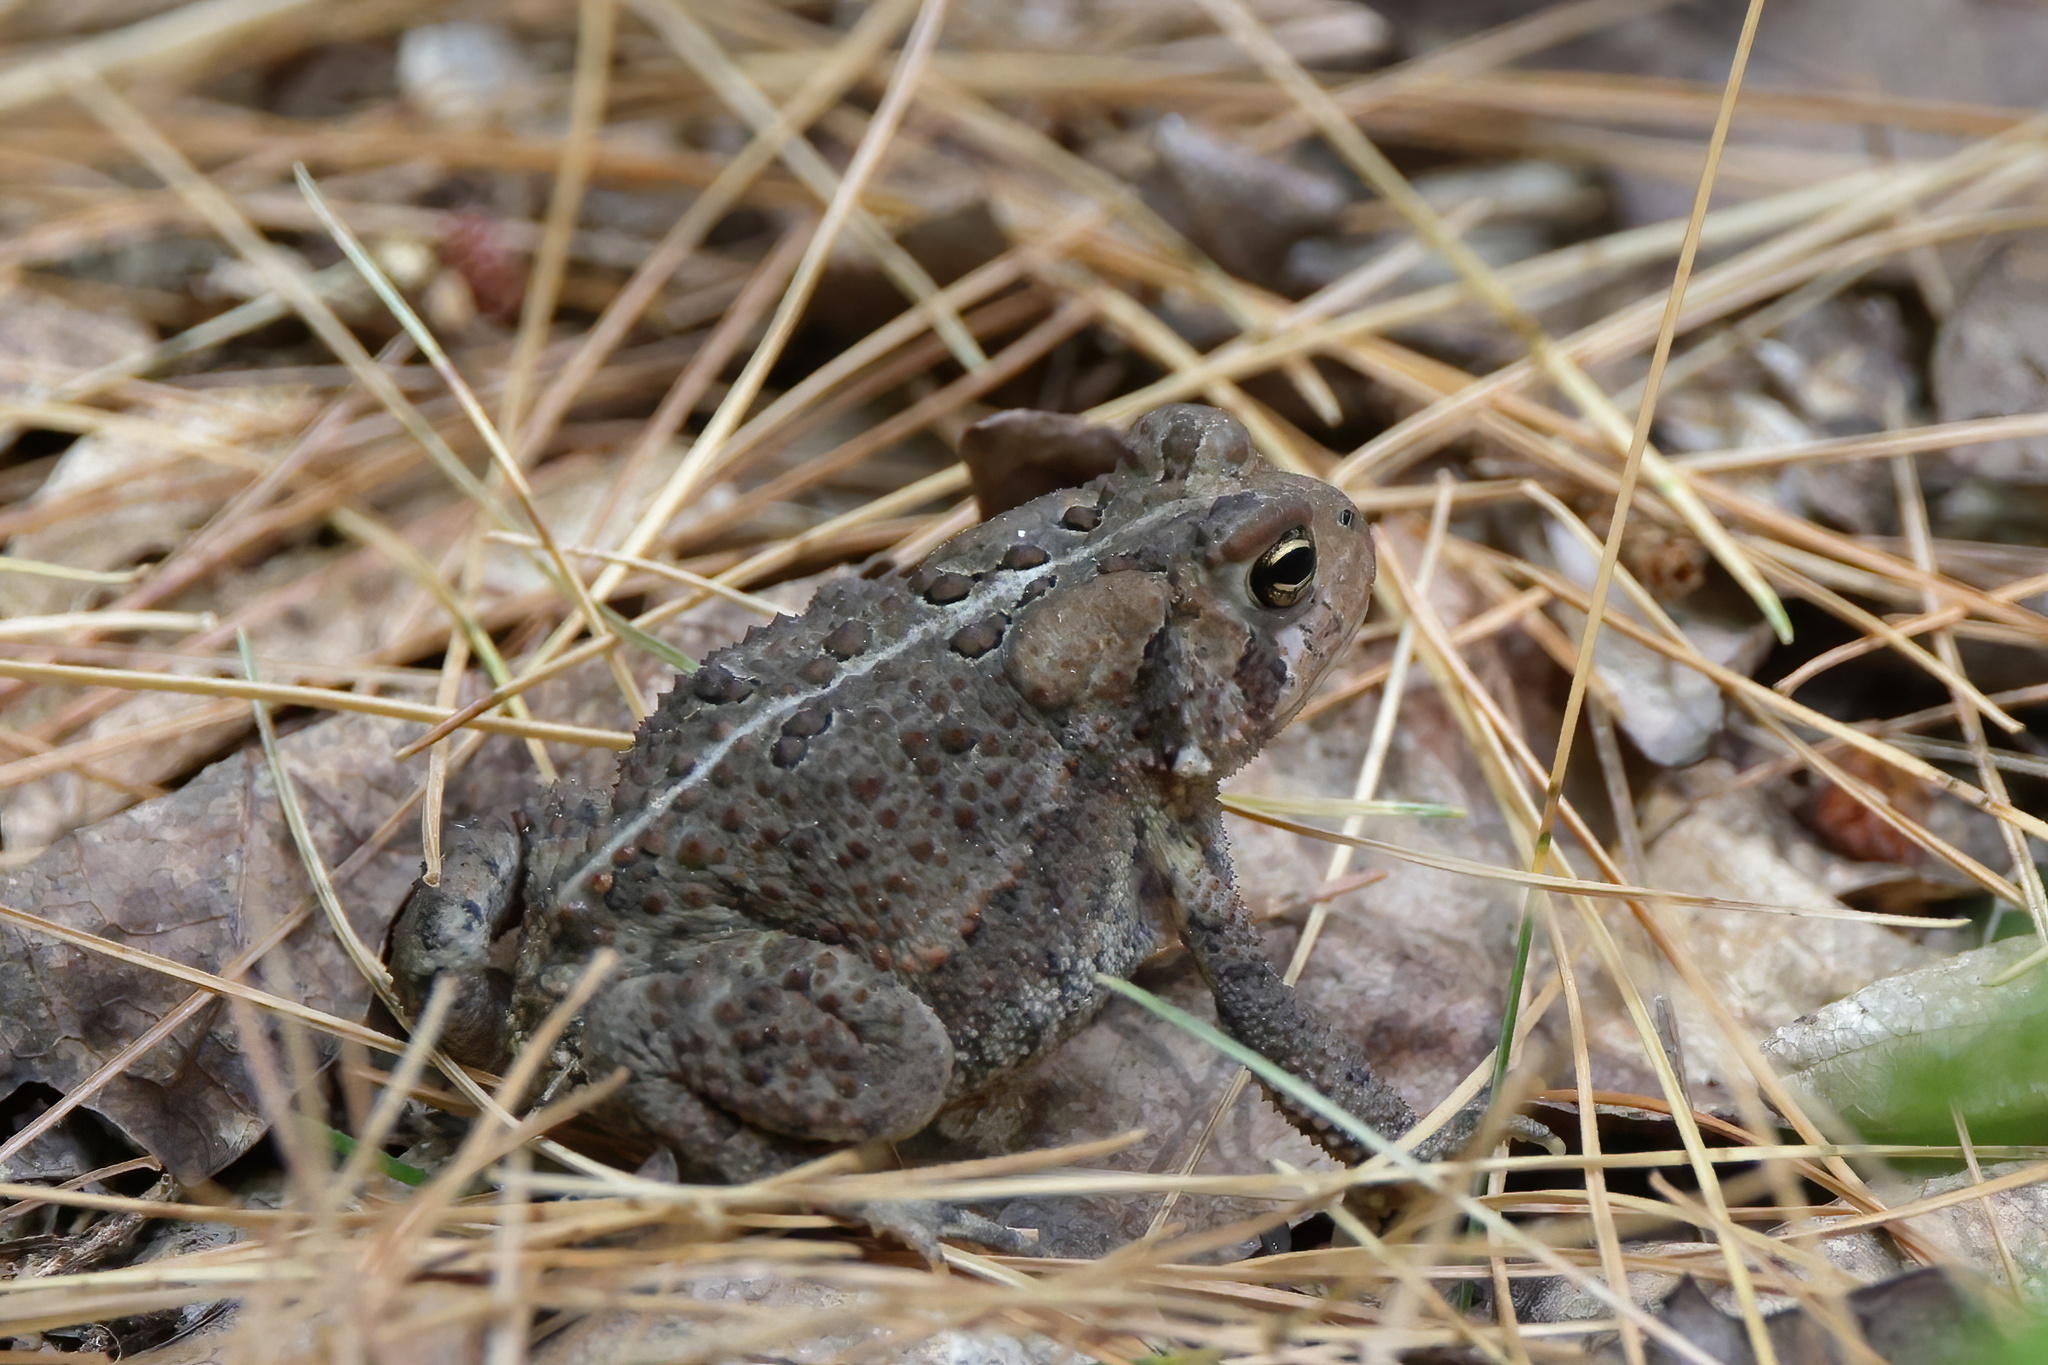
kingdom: Animalia
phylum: Chordata
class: Amphibia
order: Anura
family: Bufonidae
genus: Anaxyrus
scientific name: Anaxyrus americanus
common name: American toad
